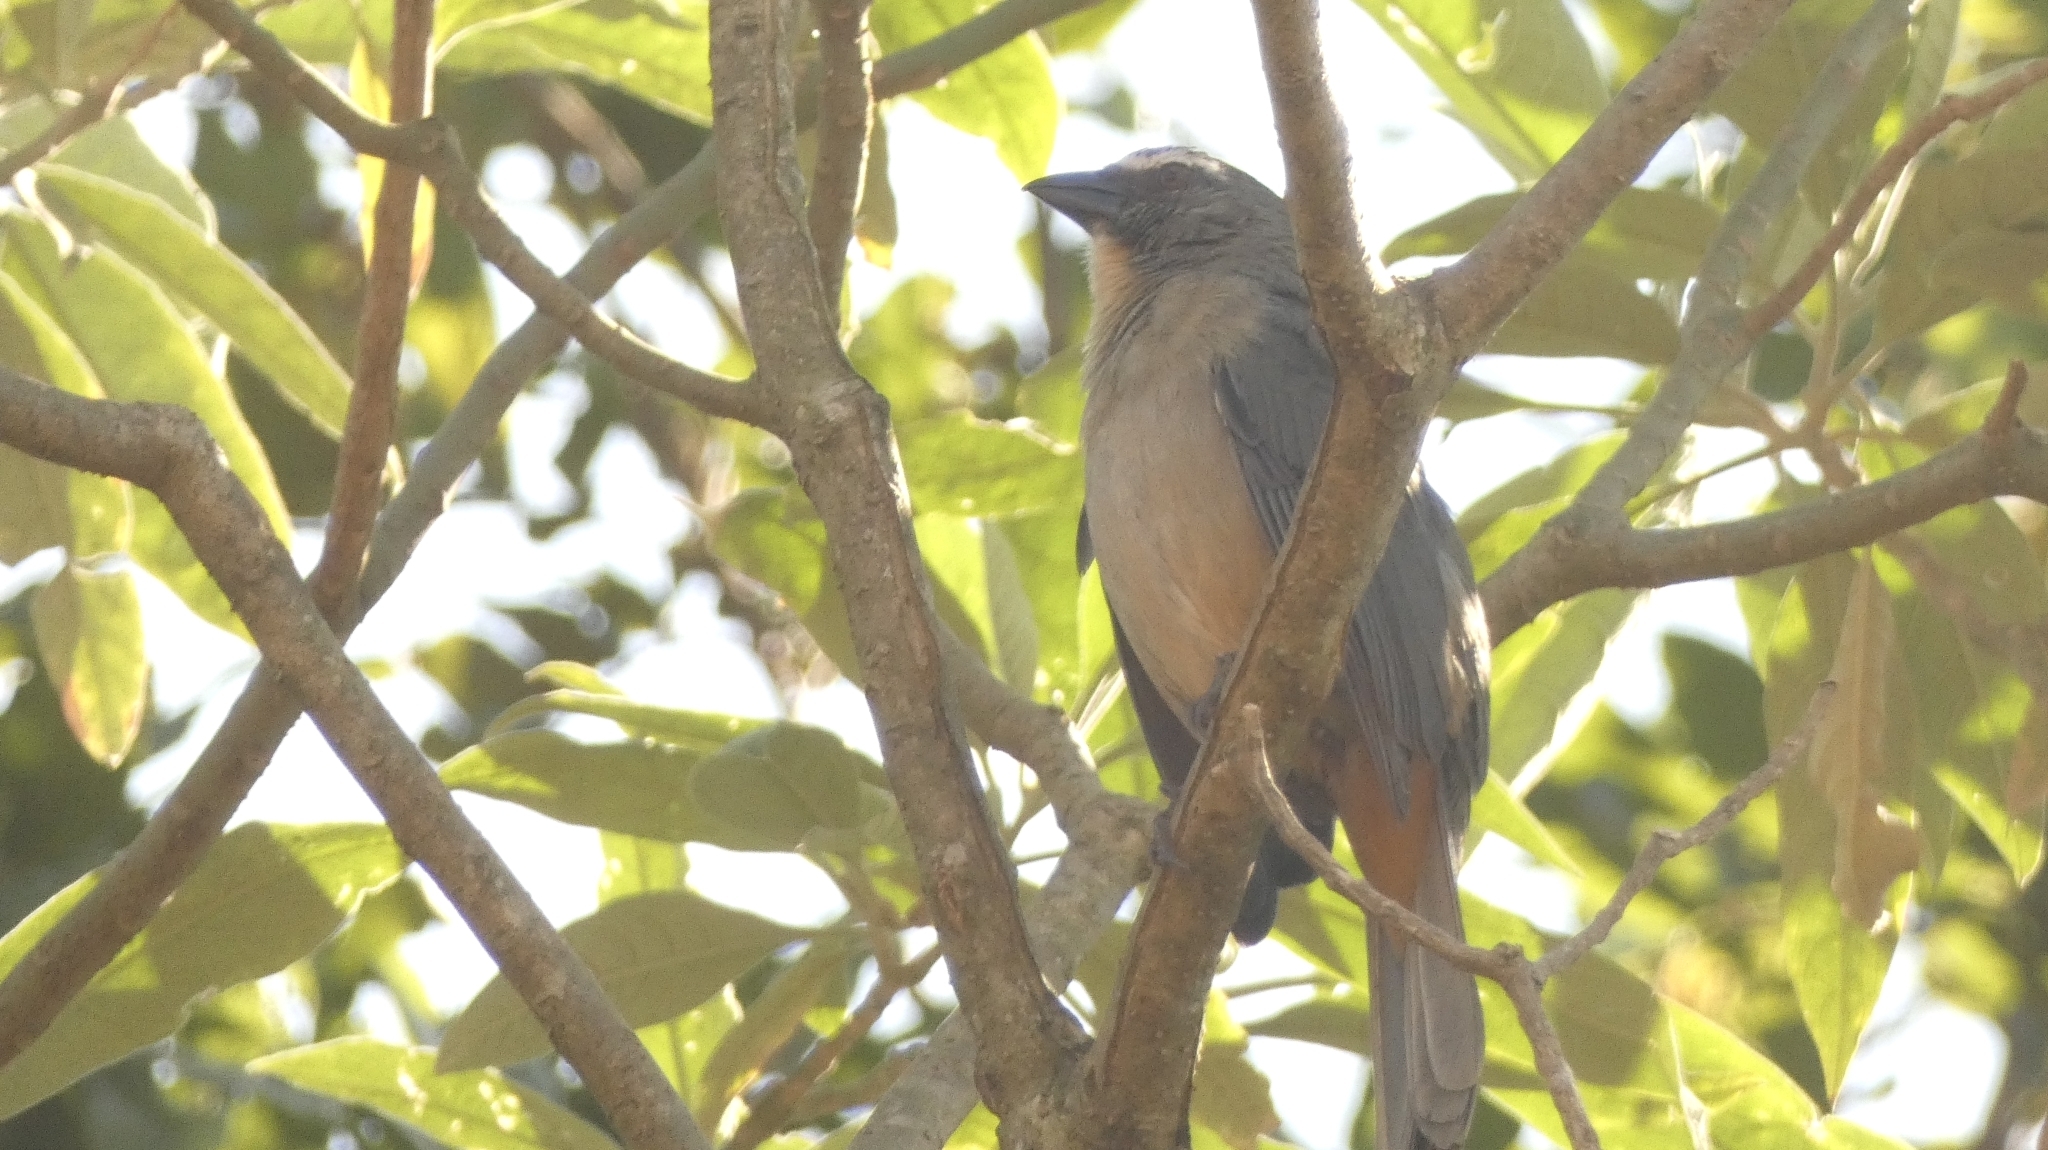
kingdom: Animalia
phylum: Chordata
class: Aves
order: Passeriformes
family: Thraupidae
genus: Saltator
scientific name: Saltator coerulescens
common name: Grayish saltator
